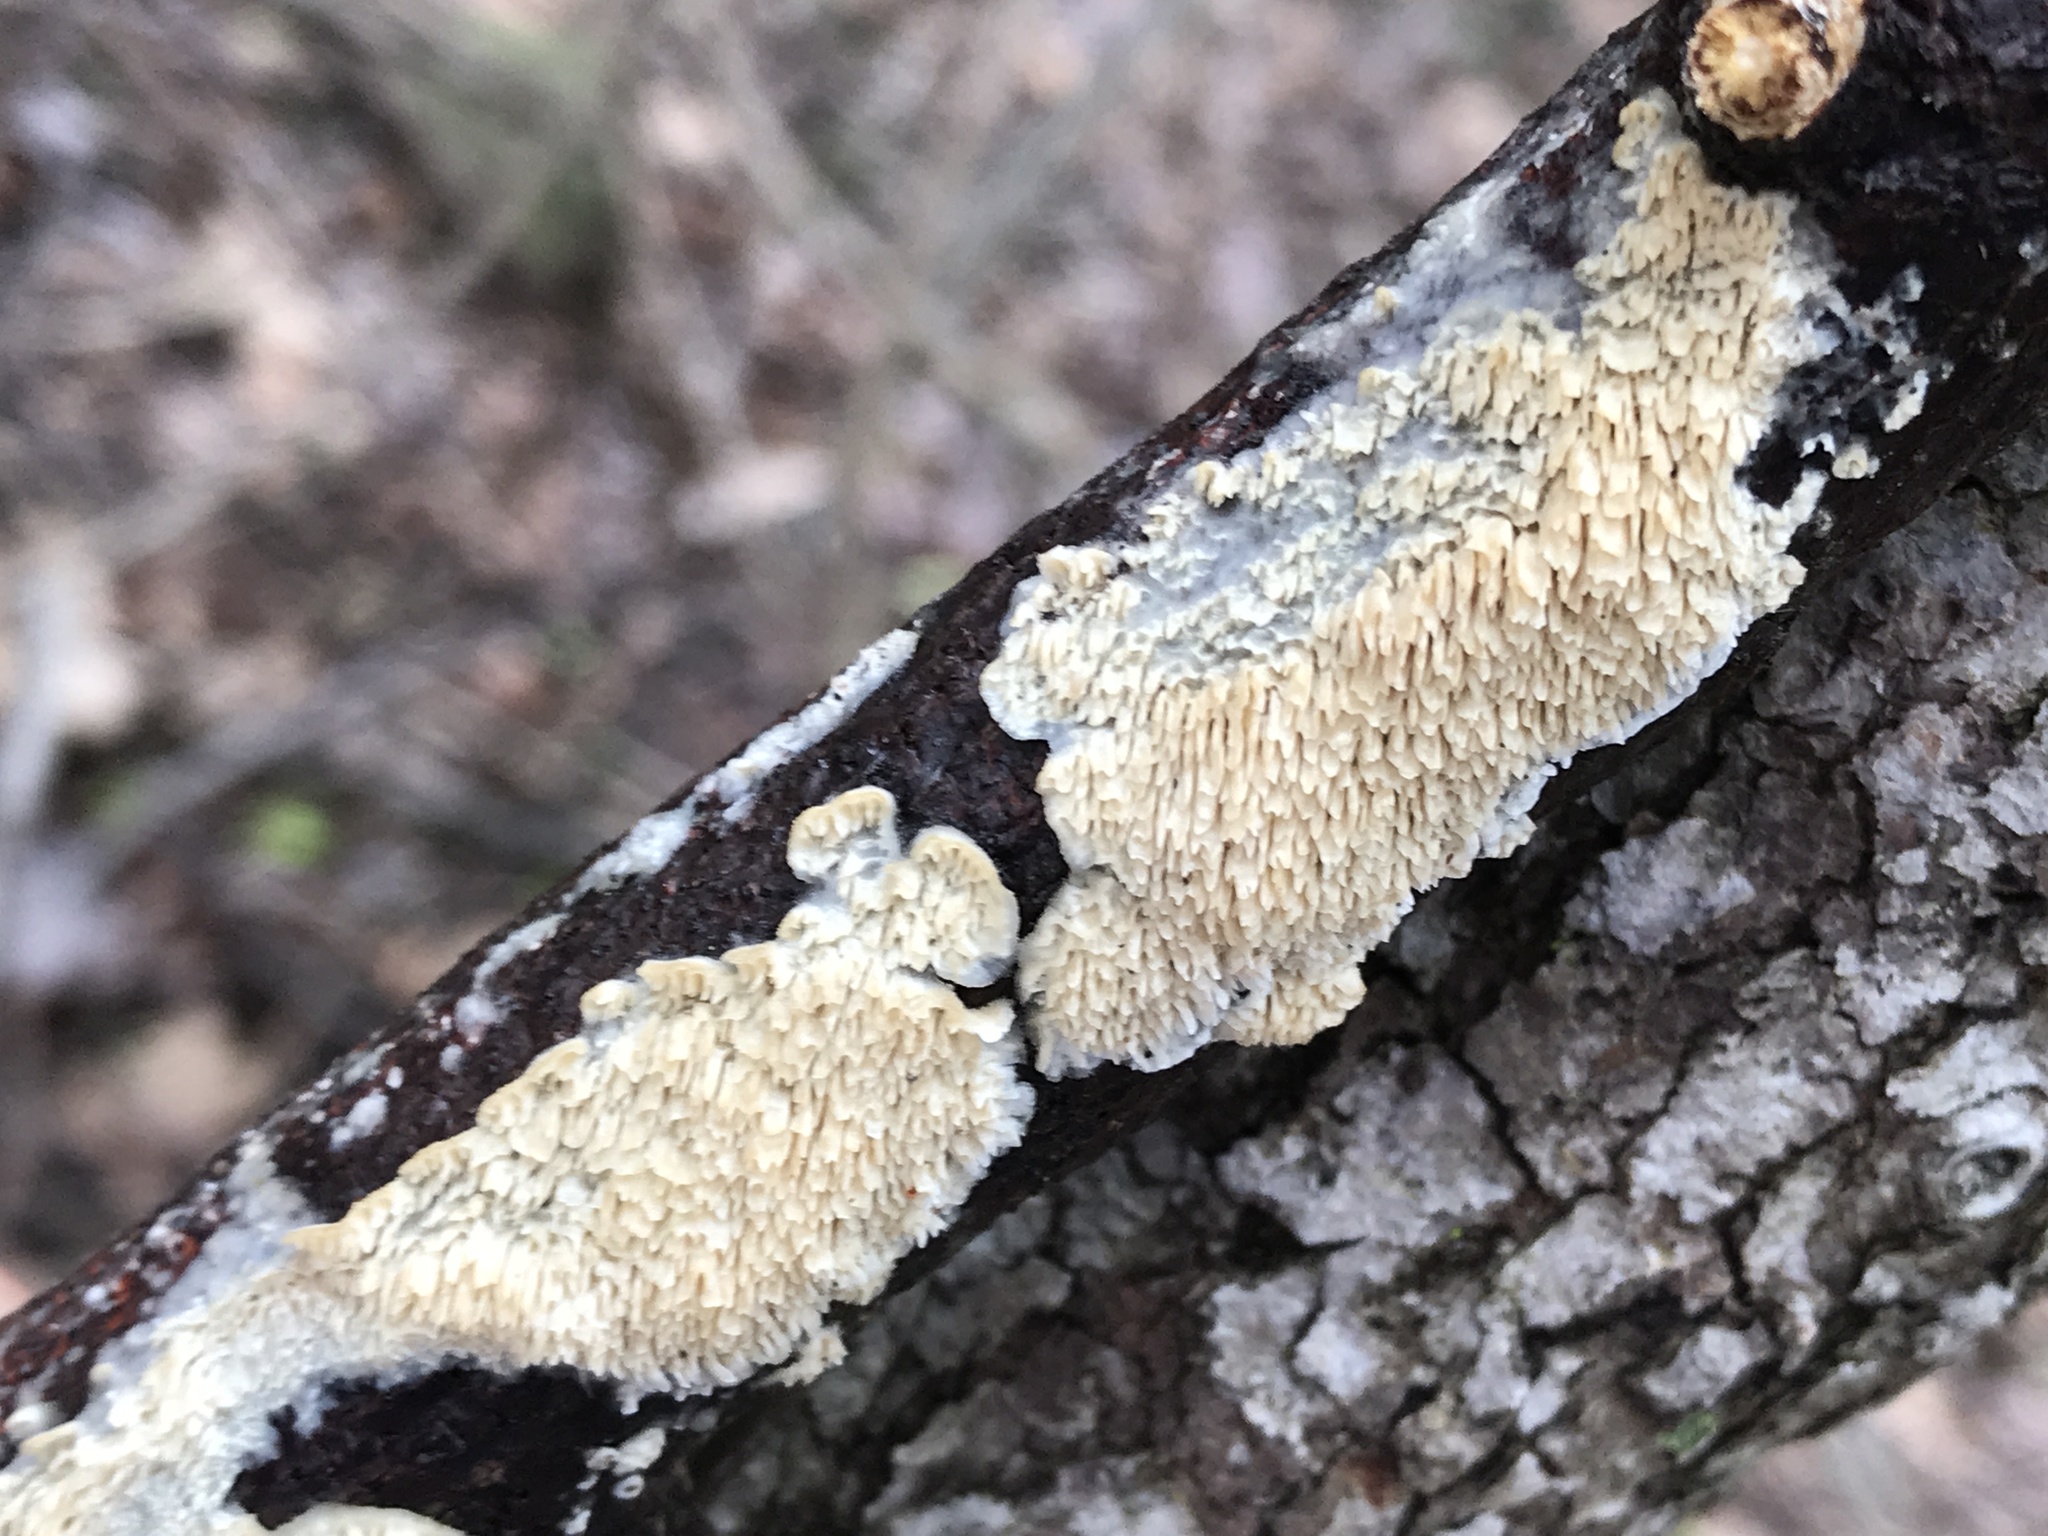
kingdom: Fungi
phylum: Basidiomycota
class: Agaricomycetes
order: Polyporales
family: Irpicaceae
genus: Irpex
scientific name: Irpex lacteus
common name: Milk-white toothed polypore
